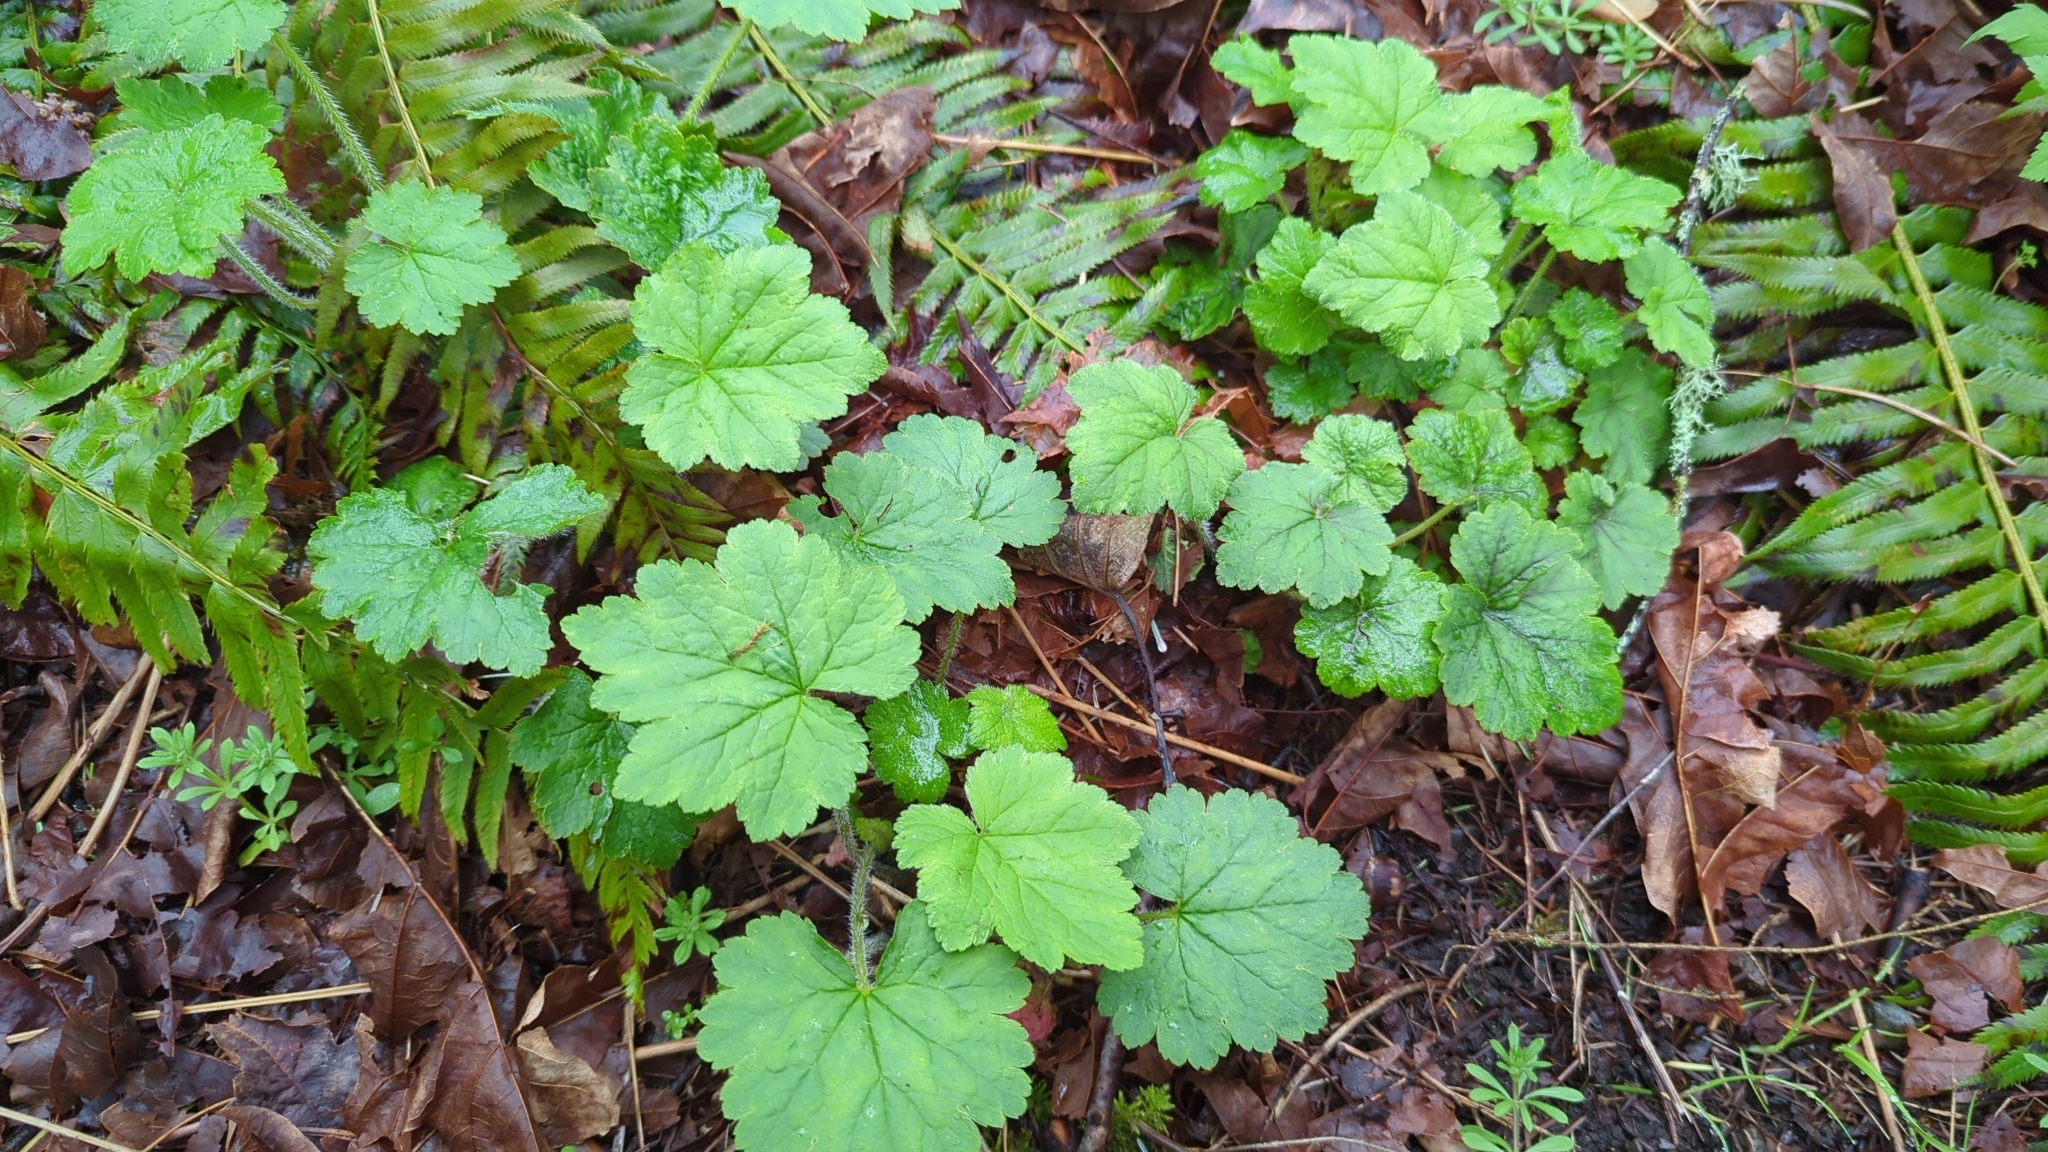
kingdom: Plantae
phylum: Tracheophyta
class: Magnoliopsida
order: Saxifragales
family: Saxifragaceae
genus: Tellima
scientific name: Tellima grandiflora
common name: Fringecups
